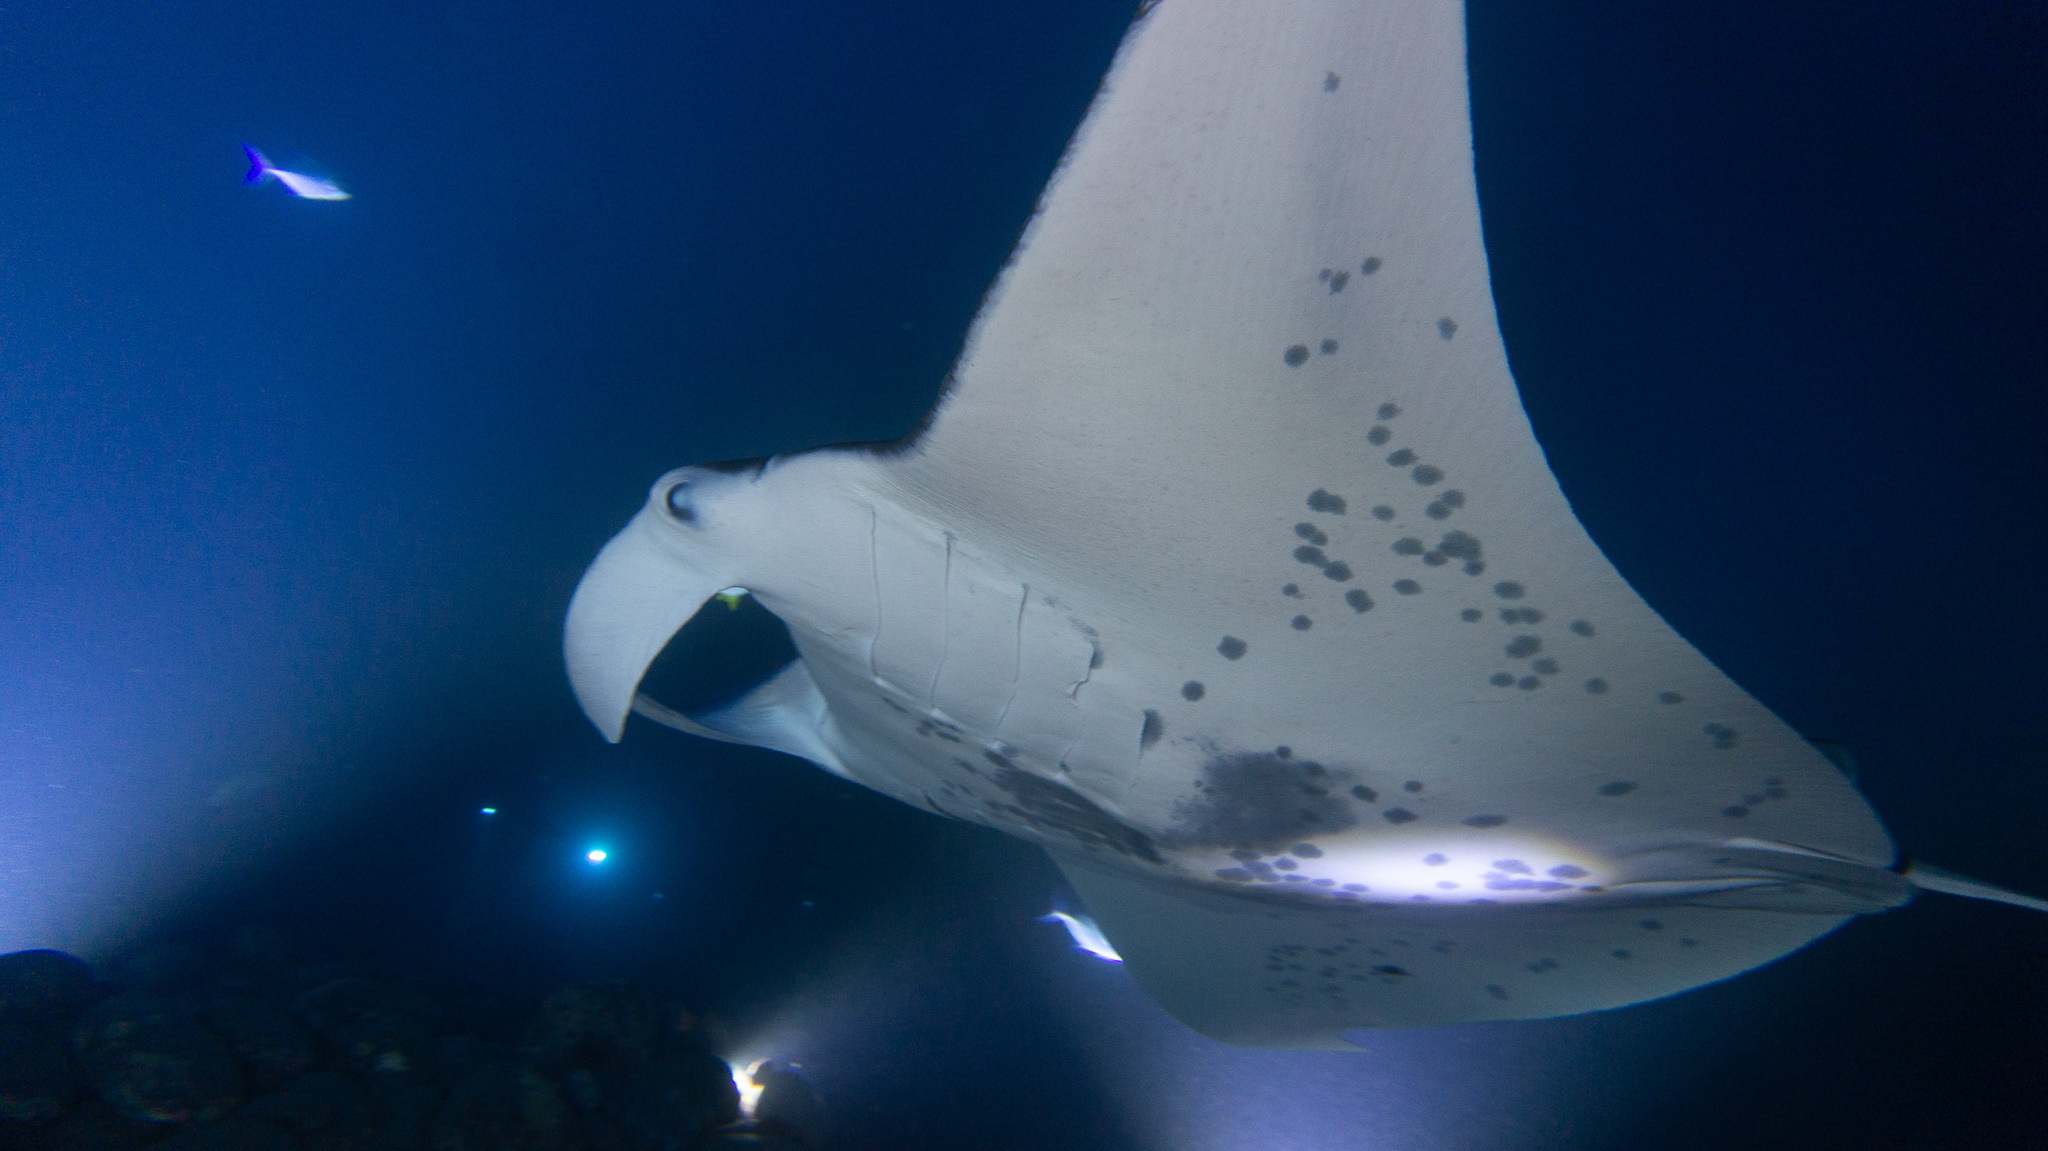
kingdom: Animalia
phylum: Chordata
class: Elasmobranchii
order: Myliobatiformes
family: Myliobatidae
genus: Mobula
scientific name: Mobula alfredi
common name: Reef manta ray
